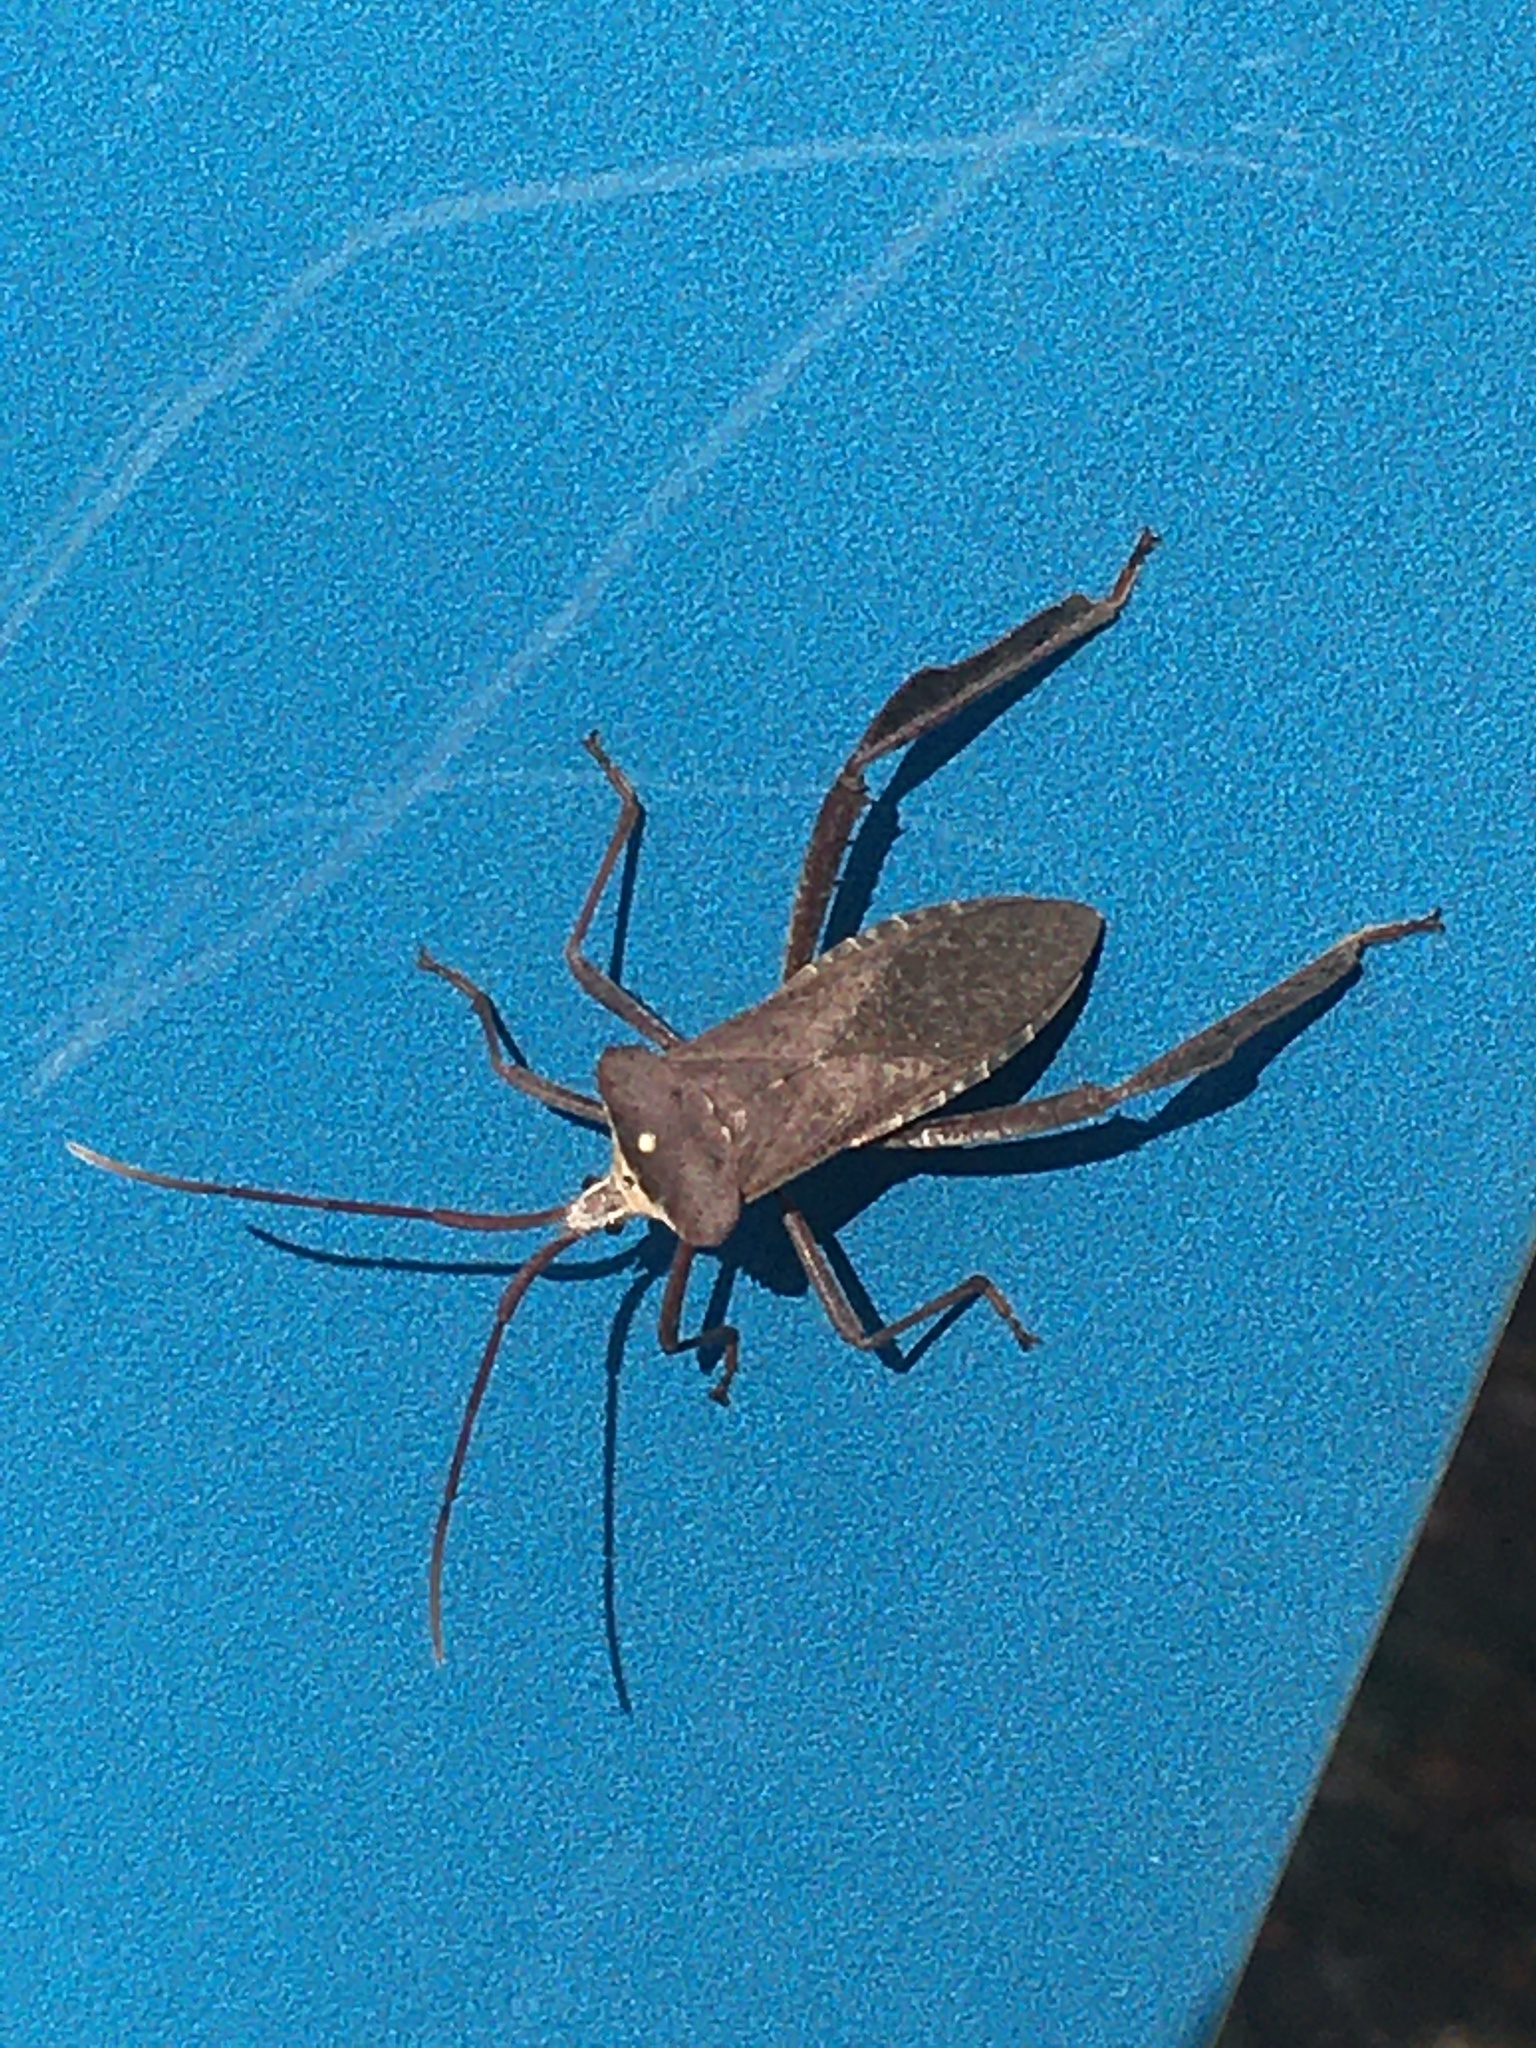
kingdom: Animalia
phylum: Arthropoda
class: Insecta
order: Hemiptera
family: Coreidae
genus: Acanthocephala
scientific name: Acanthocephala declivis
